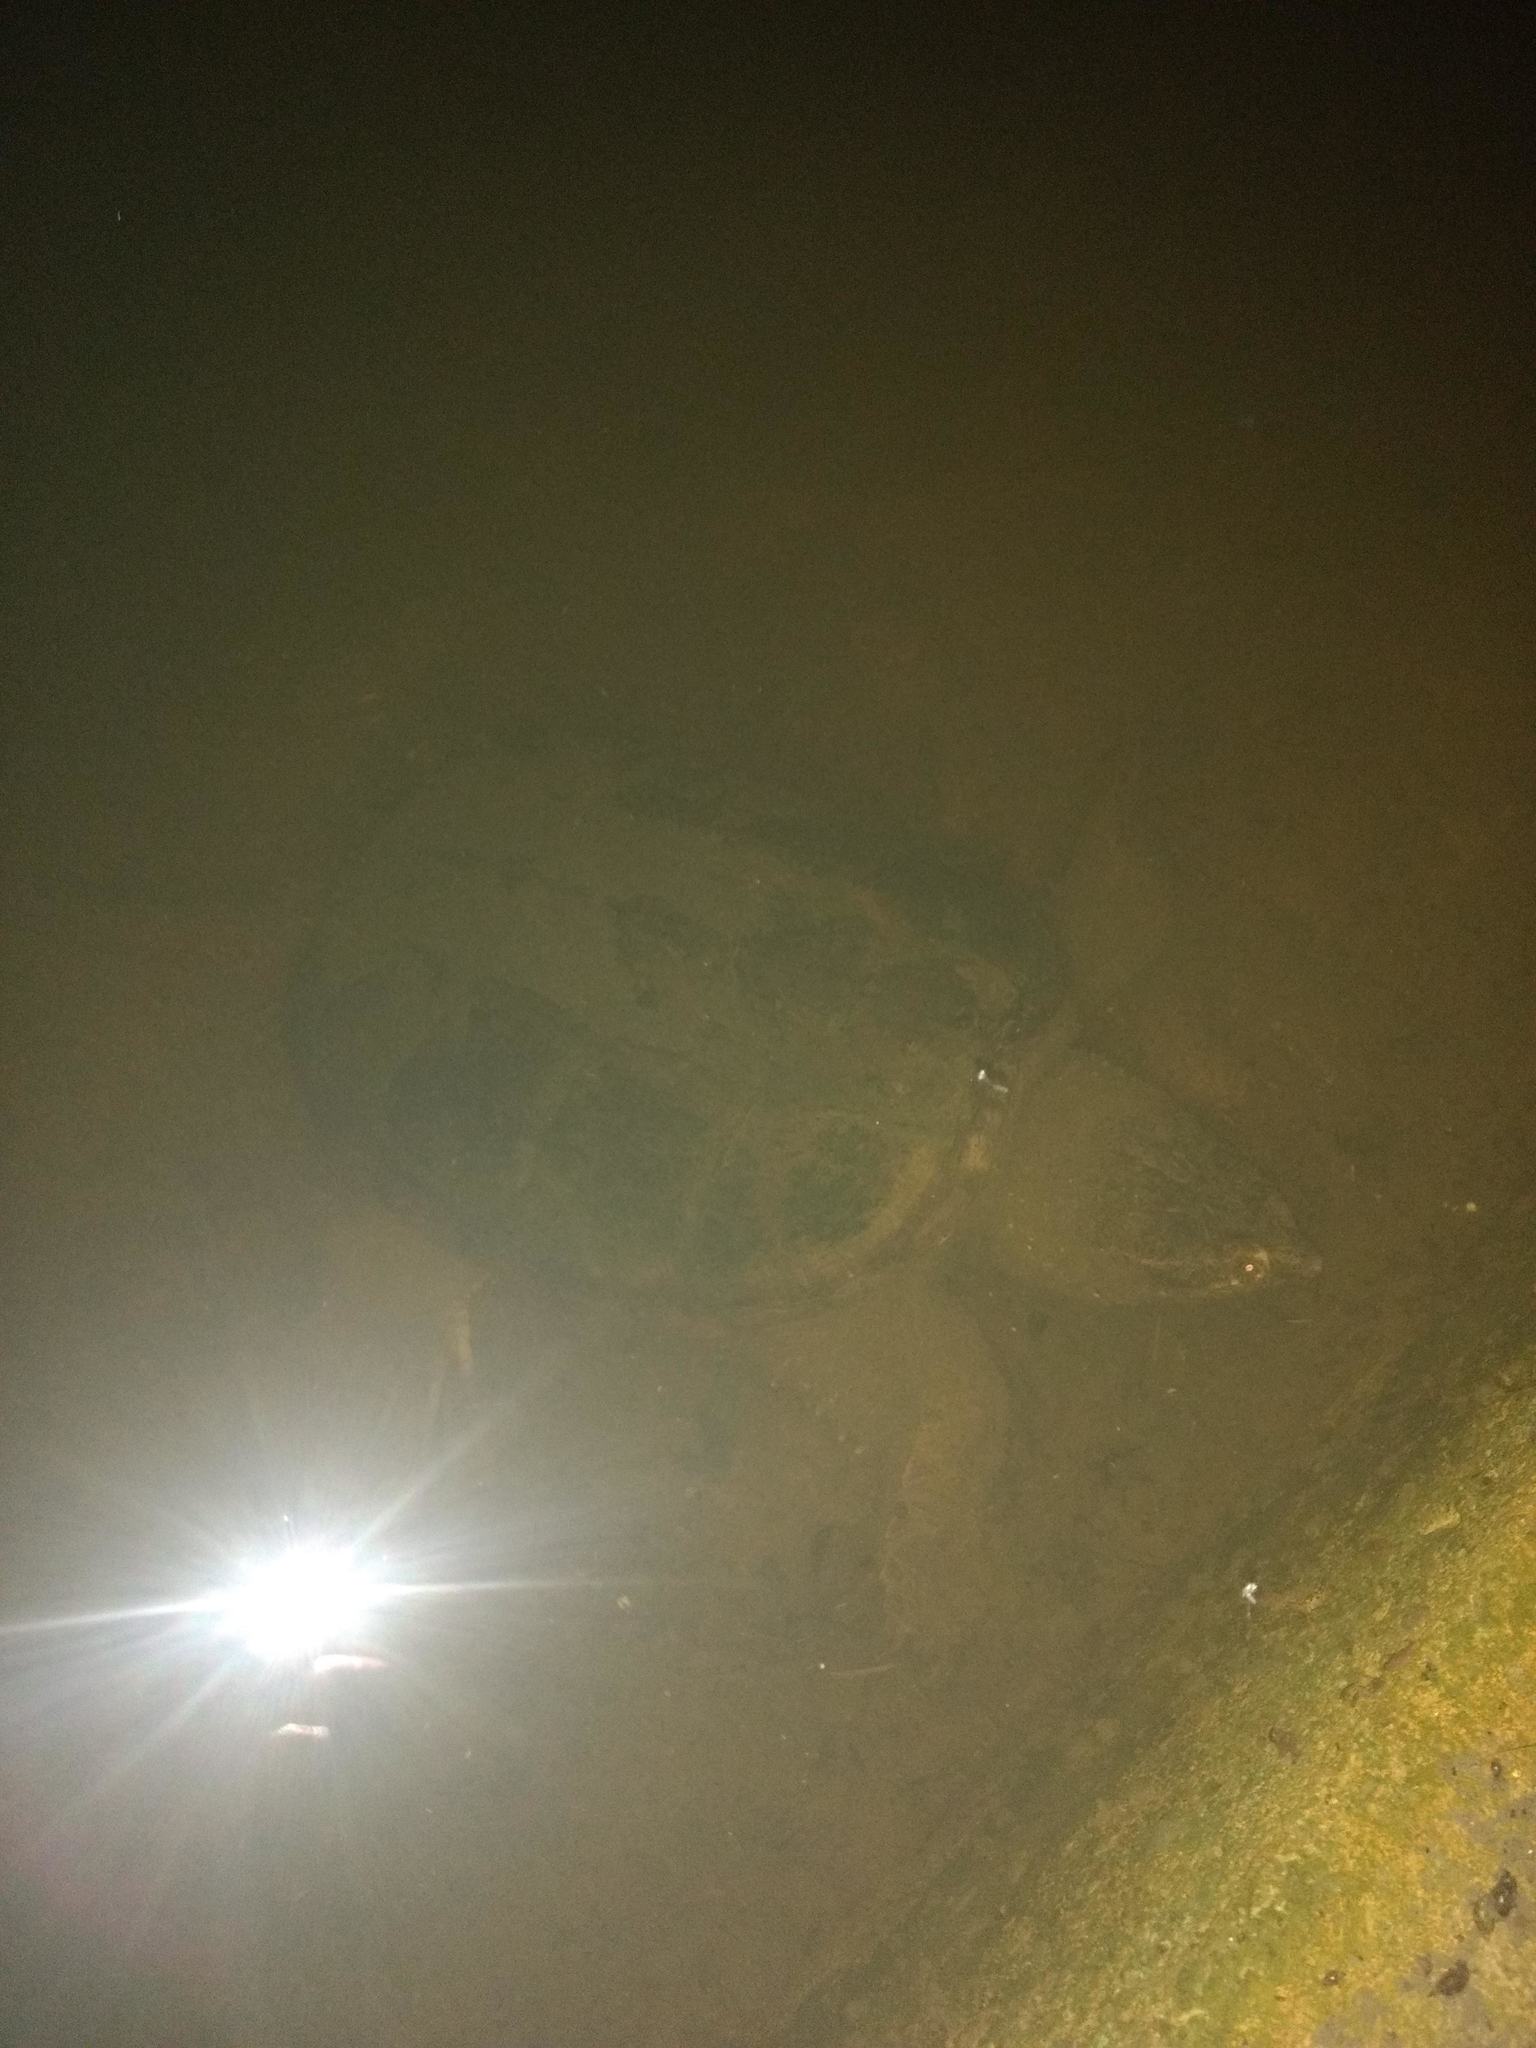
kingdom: Animalia
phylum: Chordata
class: Testudines
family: Chelydridae
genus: Chelydra
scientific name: Chelydra serpentina
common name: Common snapping turtle
